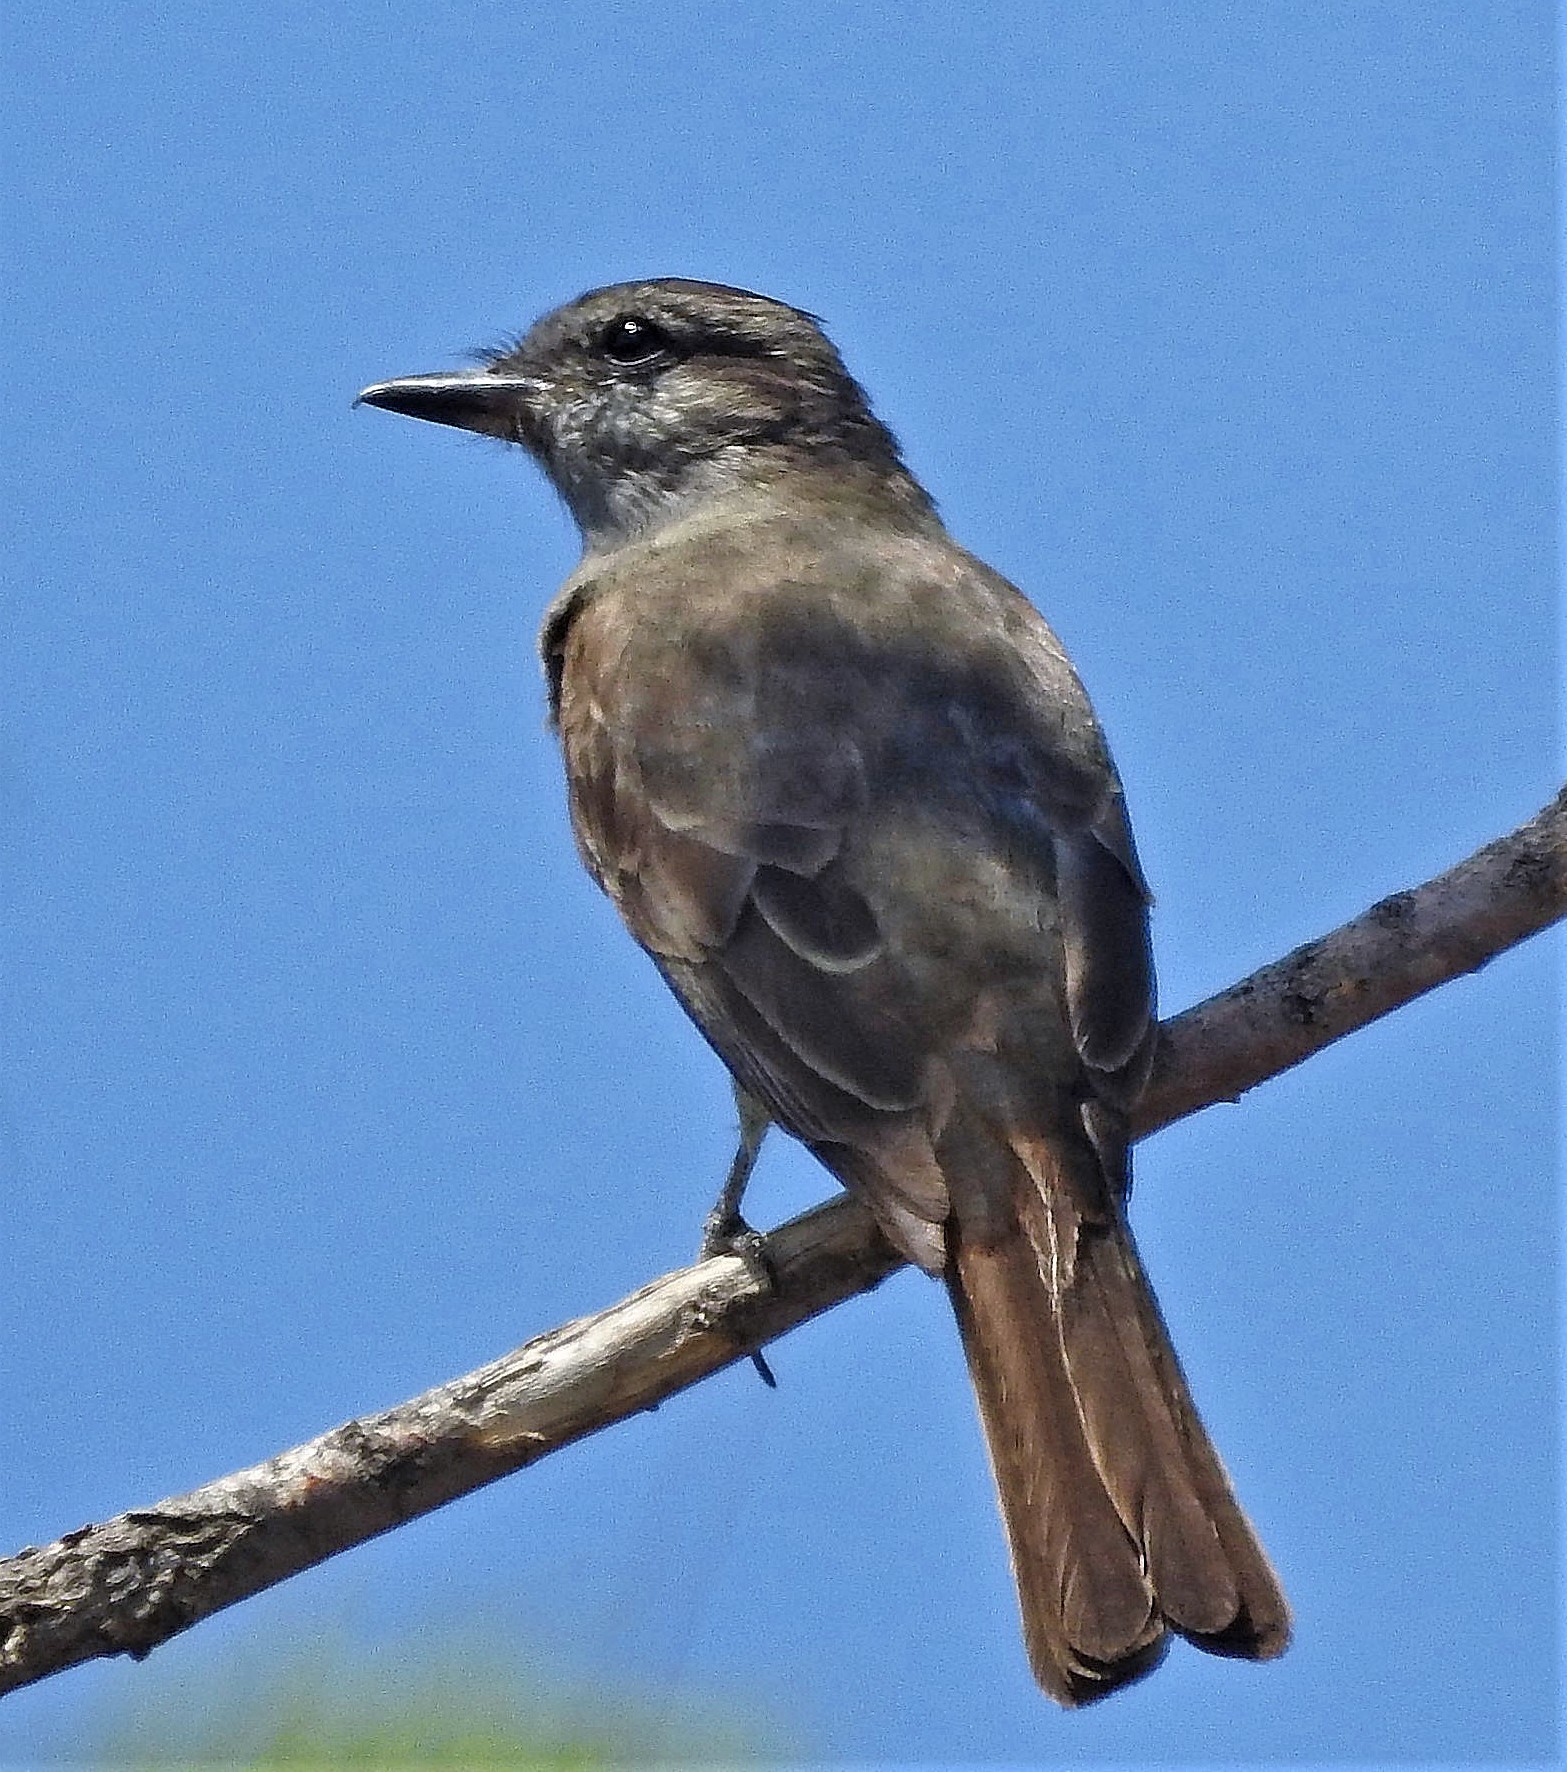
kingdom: Animalia
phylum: Chordata
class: Aves
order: Passeriformes
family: Tyrannidae
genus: Empidonomus
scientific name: Empidonomus aurantioatrocristatus
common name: Crowned slaty flycatcher
